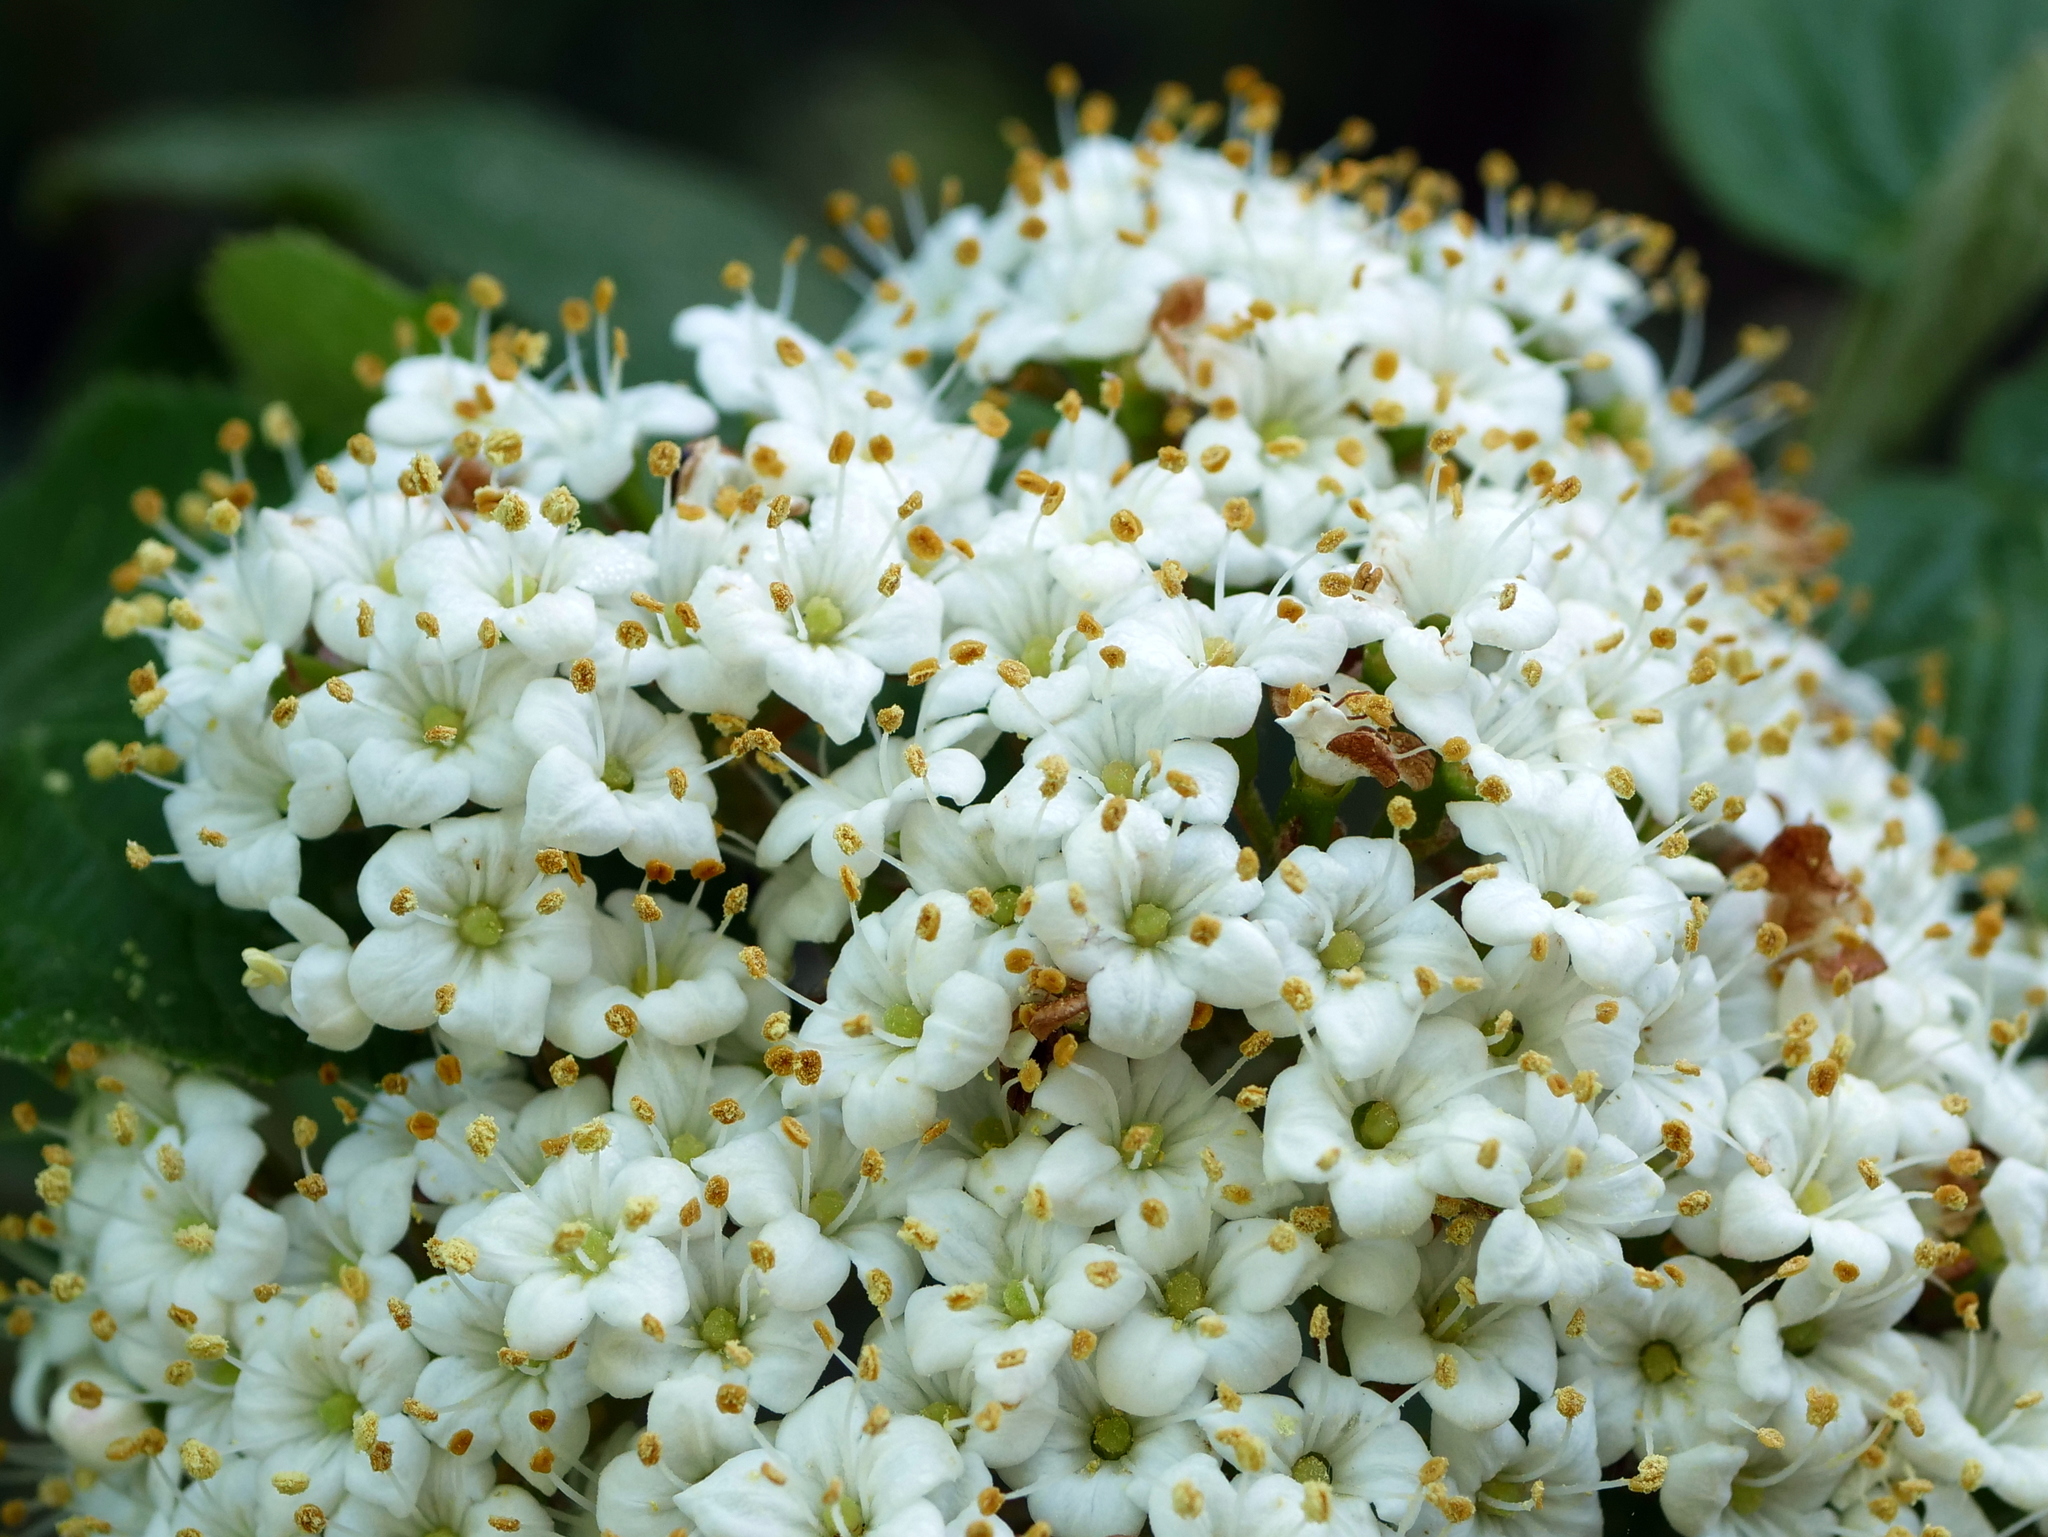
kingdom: Plantae
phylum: Tracheophyta
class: Magnoliopsida
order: Dipsacales
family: Viburnaceae
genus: Viburnum
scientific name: Viburnum lantana
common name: Wayfaring tree
